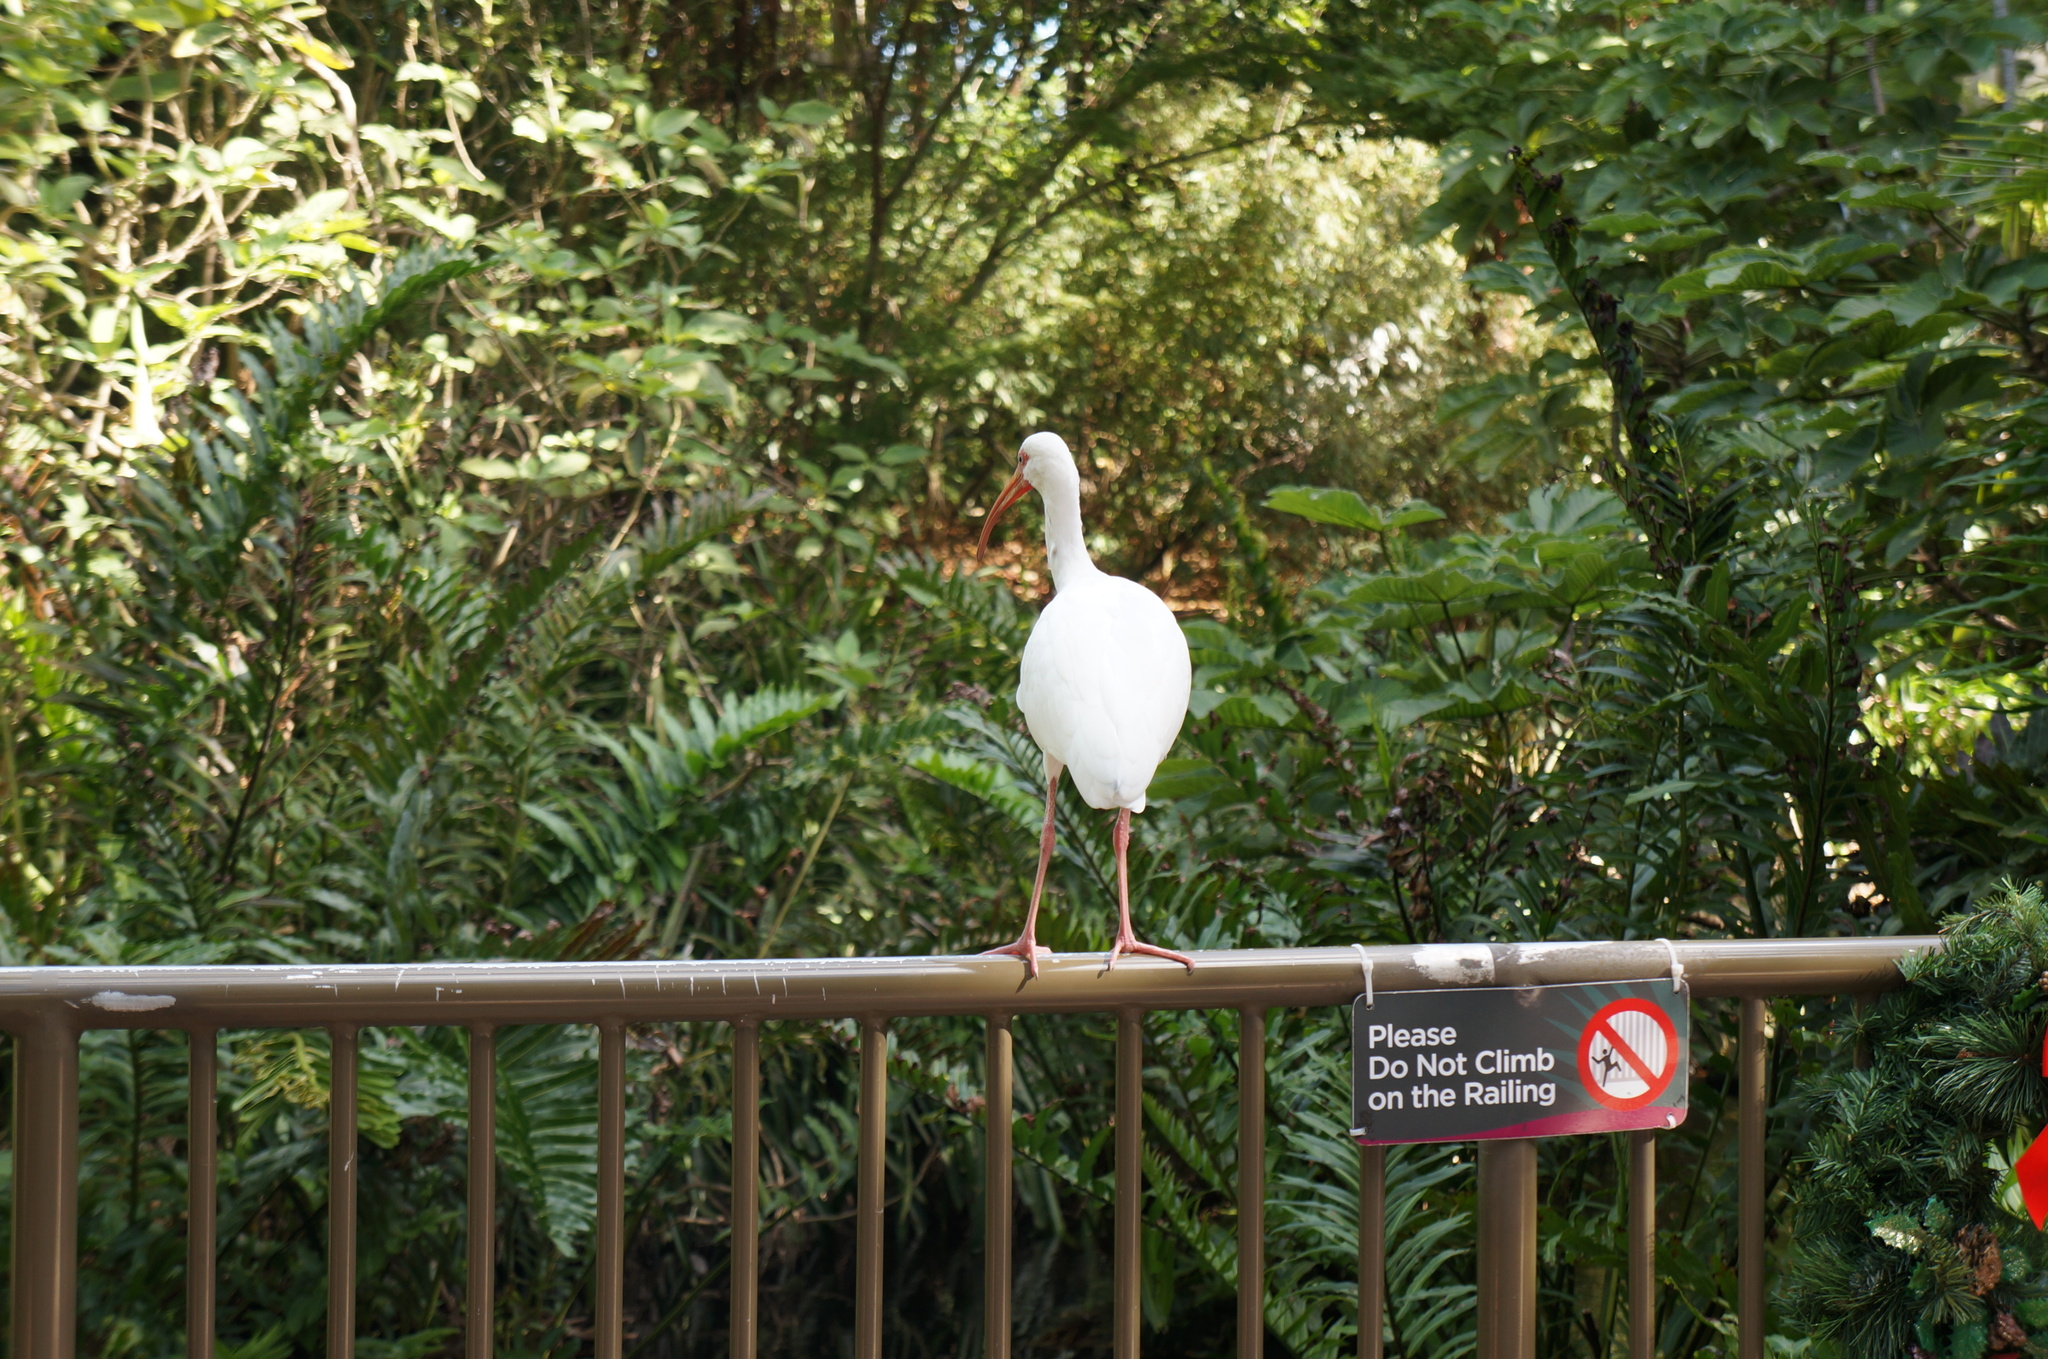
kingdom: Animalia
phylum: Chordata
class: Aves
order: Pelecaniformes
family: Threskiornithidae
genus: Eudocimus
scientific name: Eudocimus albus
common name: White ibis
